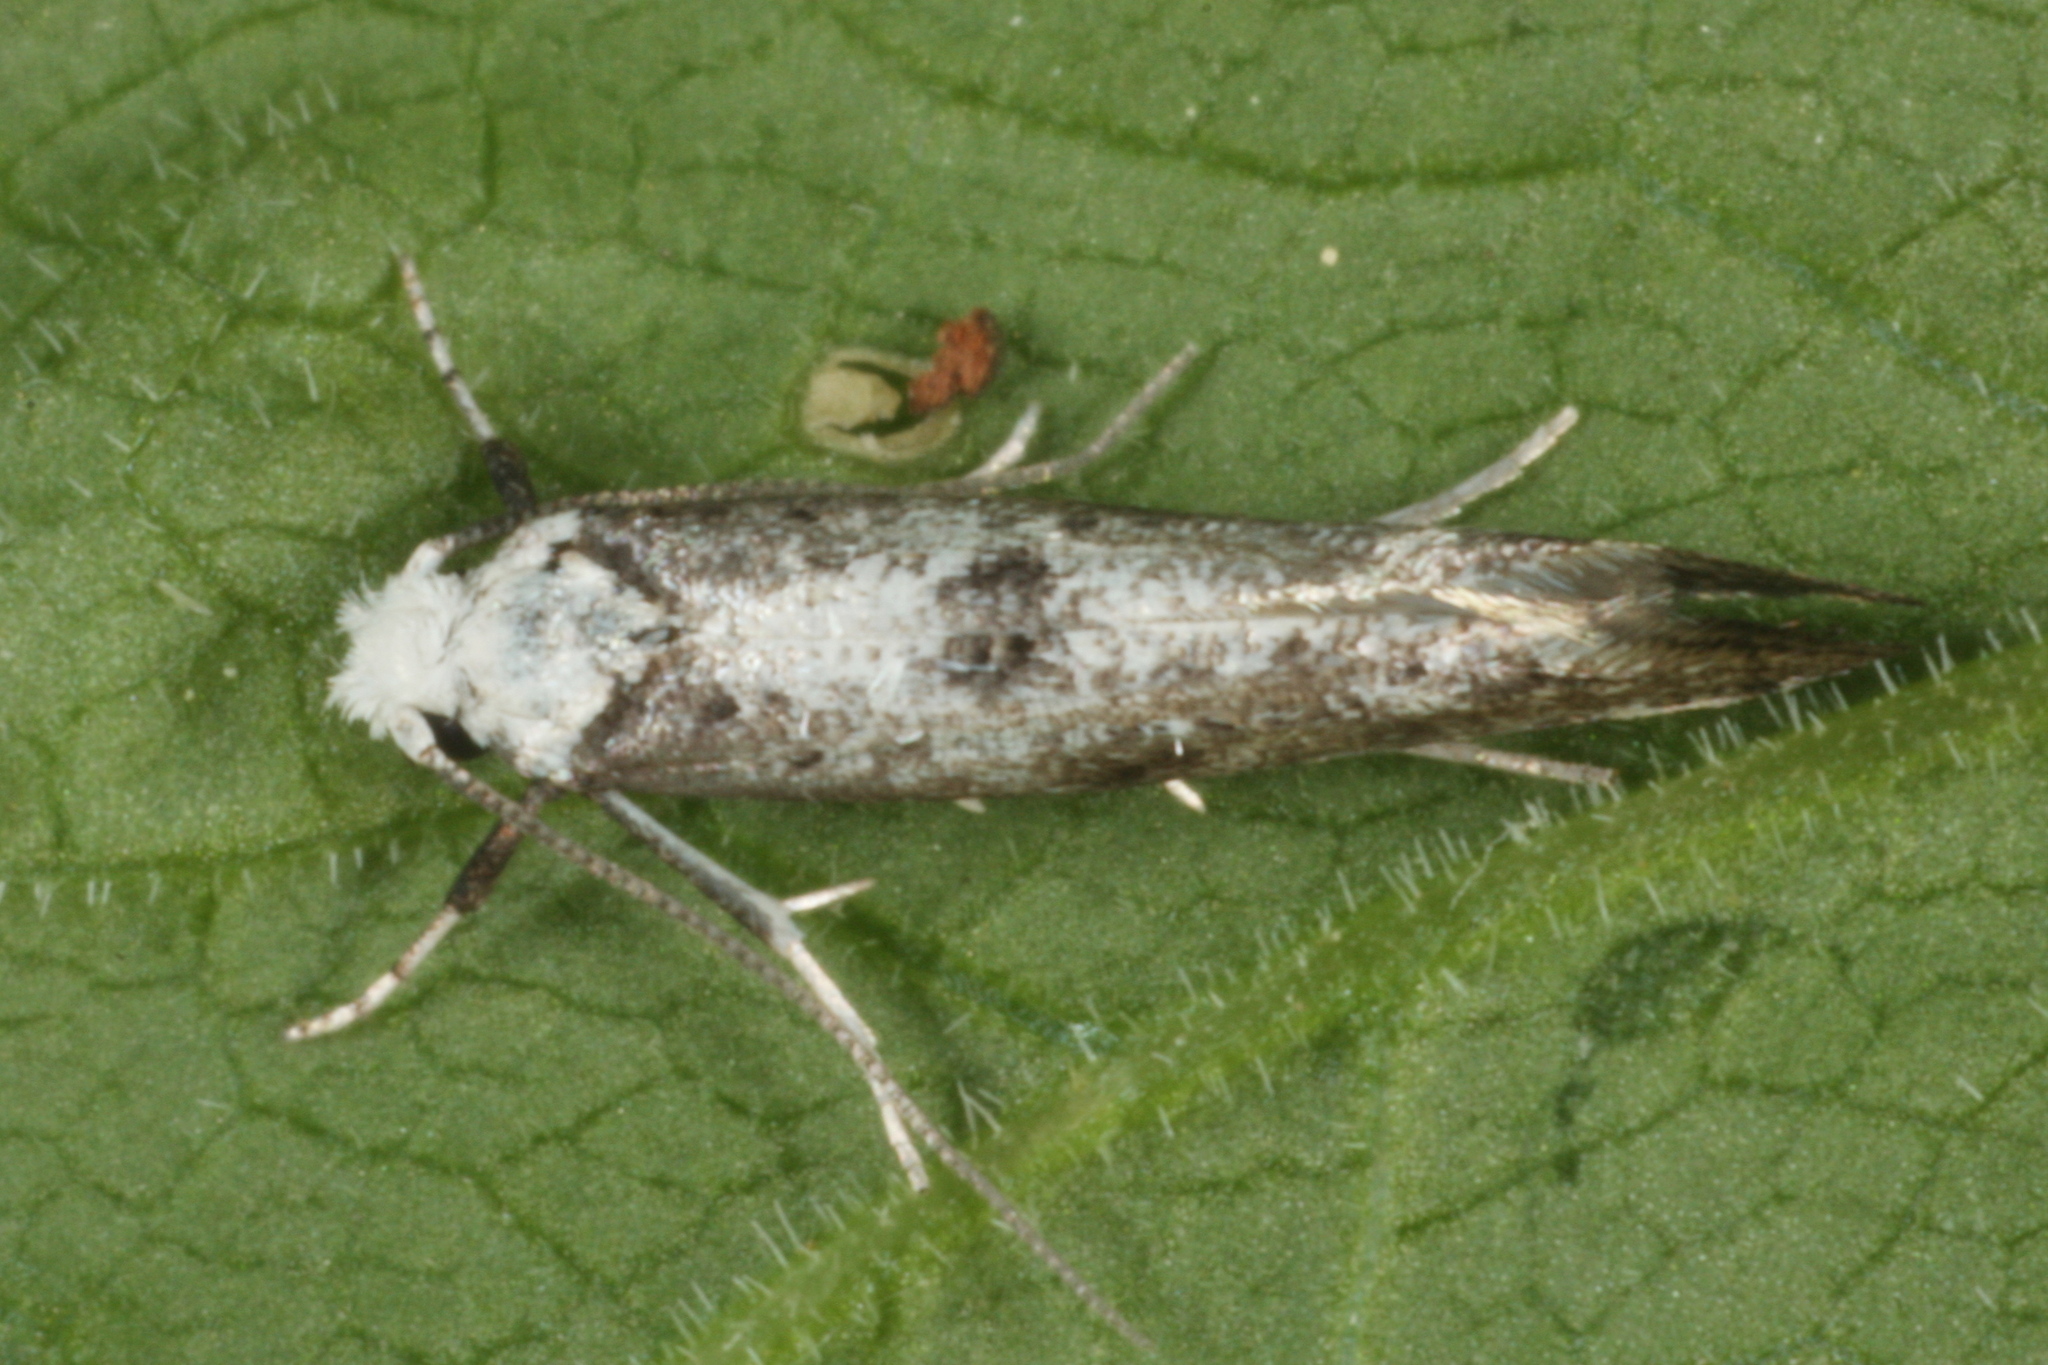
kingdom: Animalia
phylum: Arthropoda
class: Insecta
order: Lepidoptera
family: Yponomeutidae
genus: Paraswammerdamia
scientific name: Paraswammerdamia albicapitella
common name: White-headed ermel
